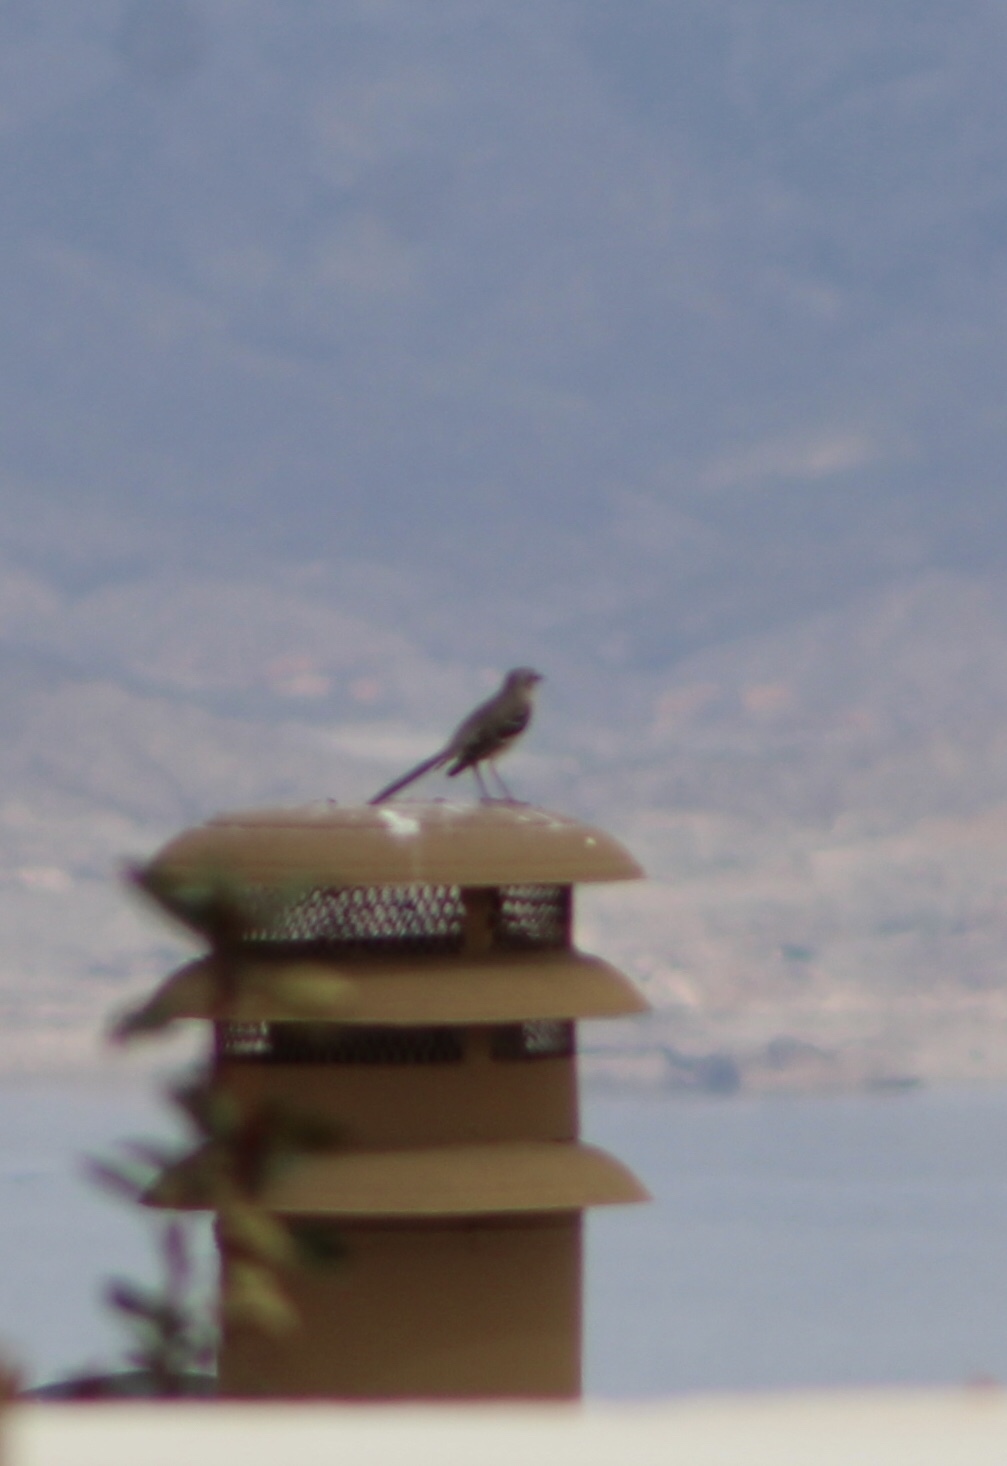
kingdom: Animalia
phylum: Chordata
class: Aves
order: Passeriformes
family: Mimidae
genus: Mimus
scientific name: Mimus polyglottos
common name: Northern mockingbird
